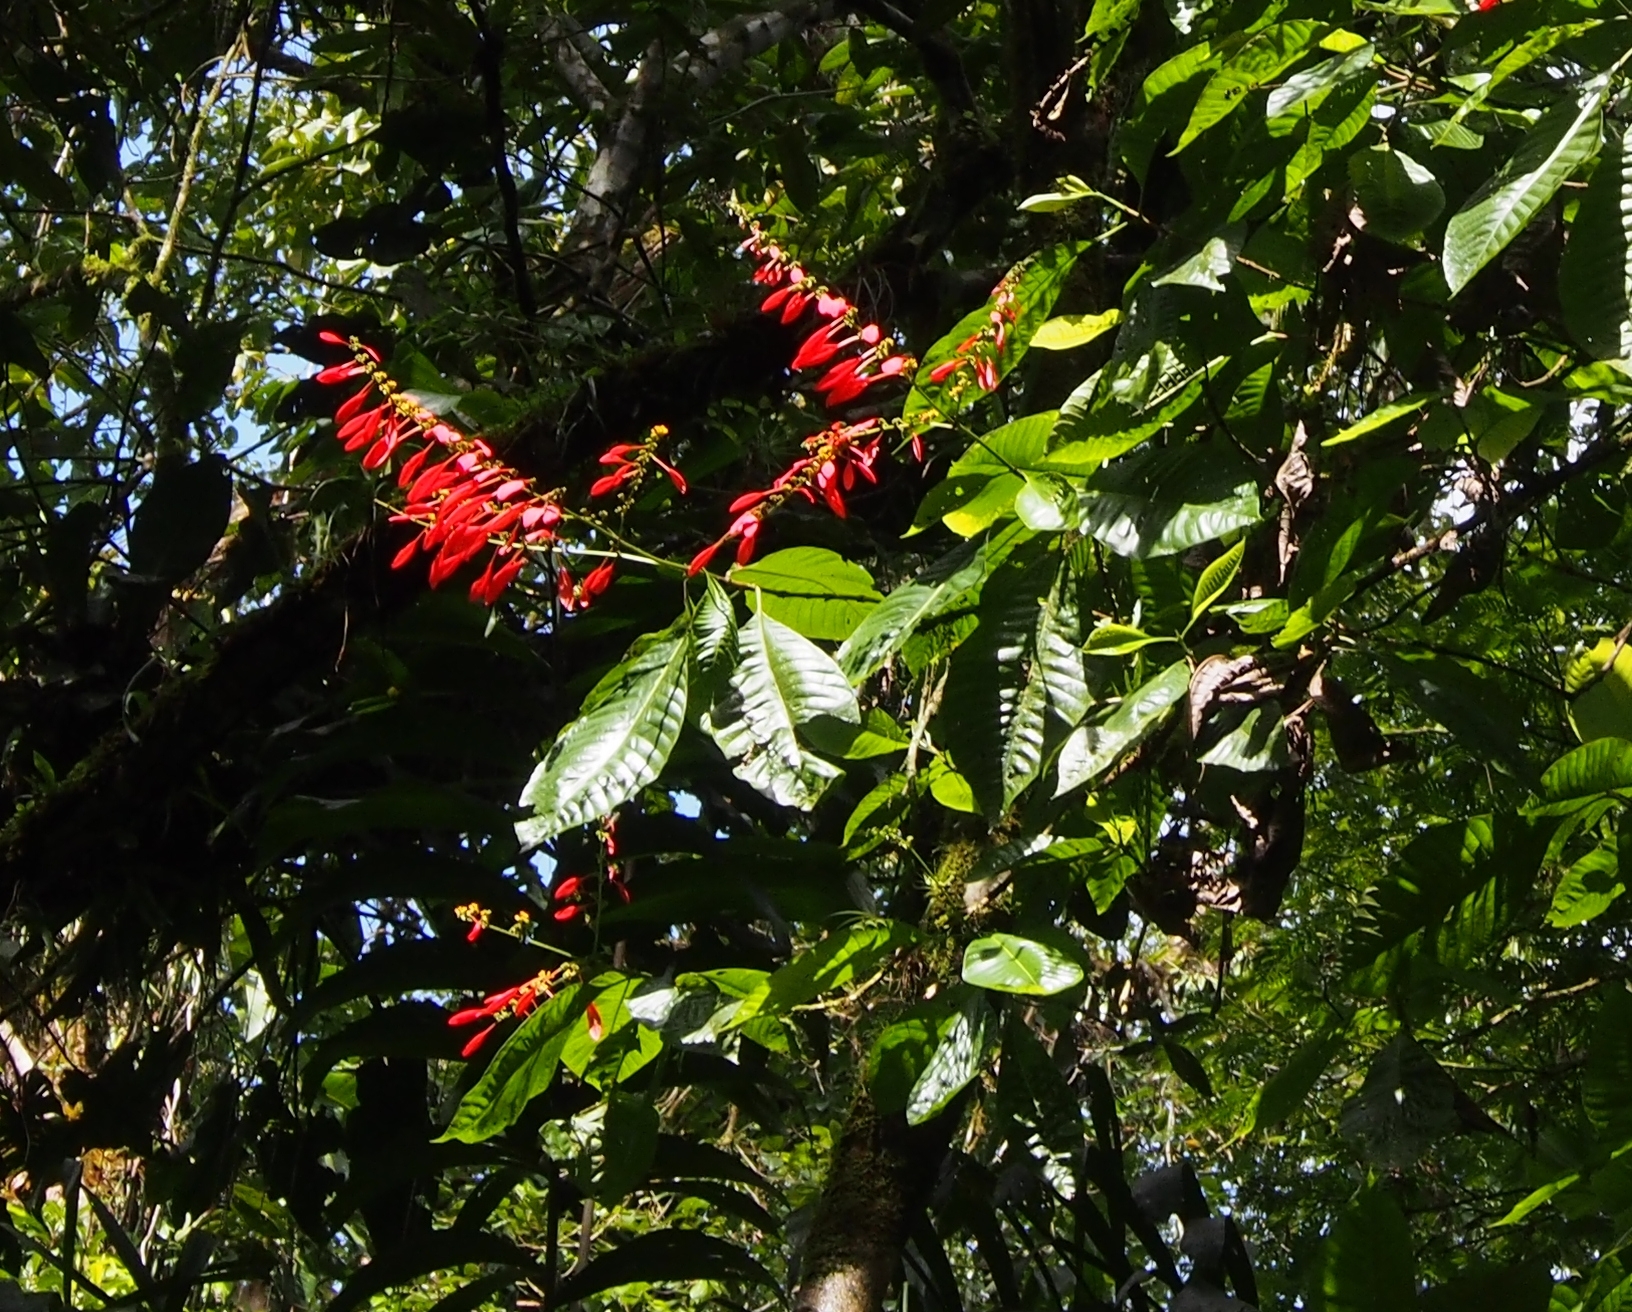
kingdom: Plantae
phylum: Tracheophyta
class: Magnoliopsida
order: Gentianales
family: Rubiaceae
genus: Warszewiczia
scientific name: Warszewiczia coccinea
